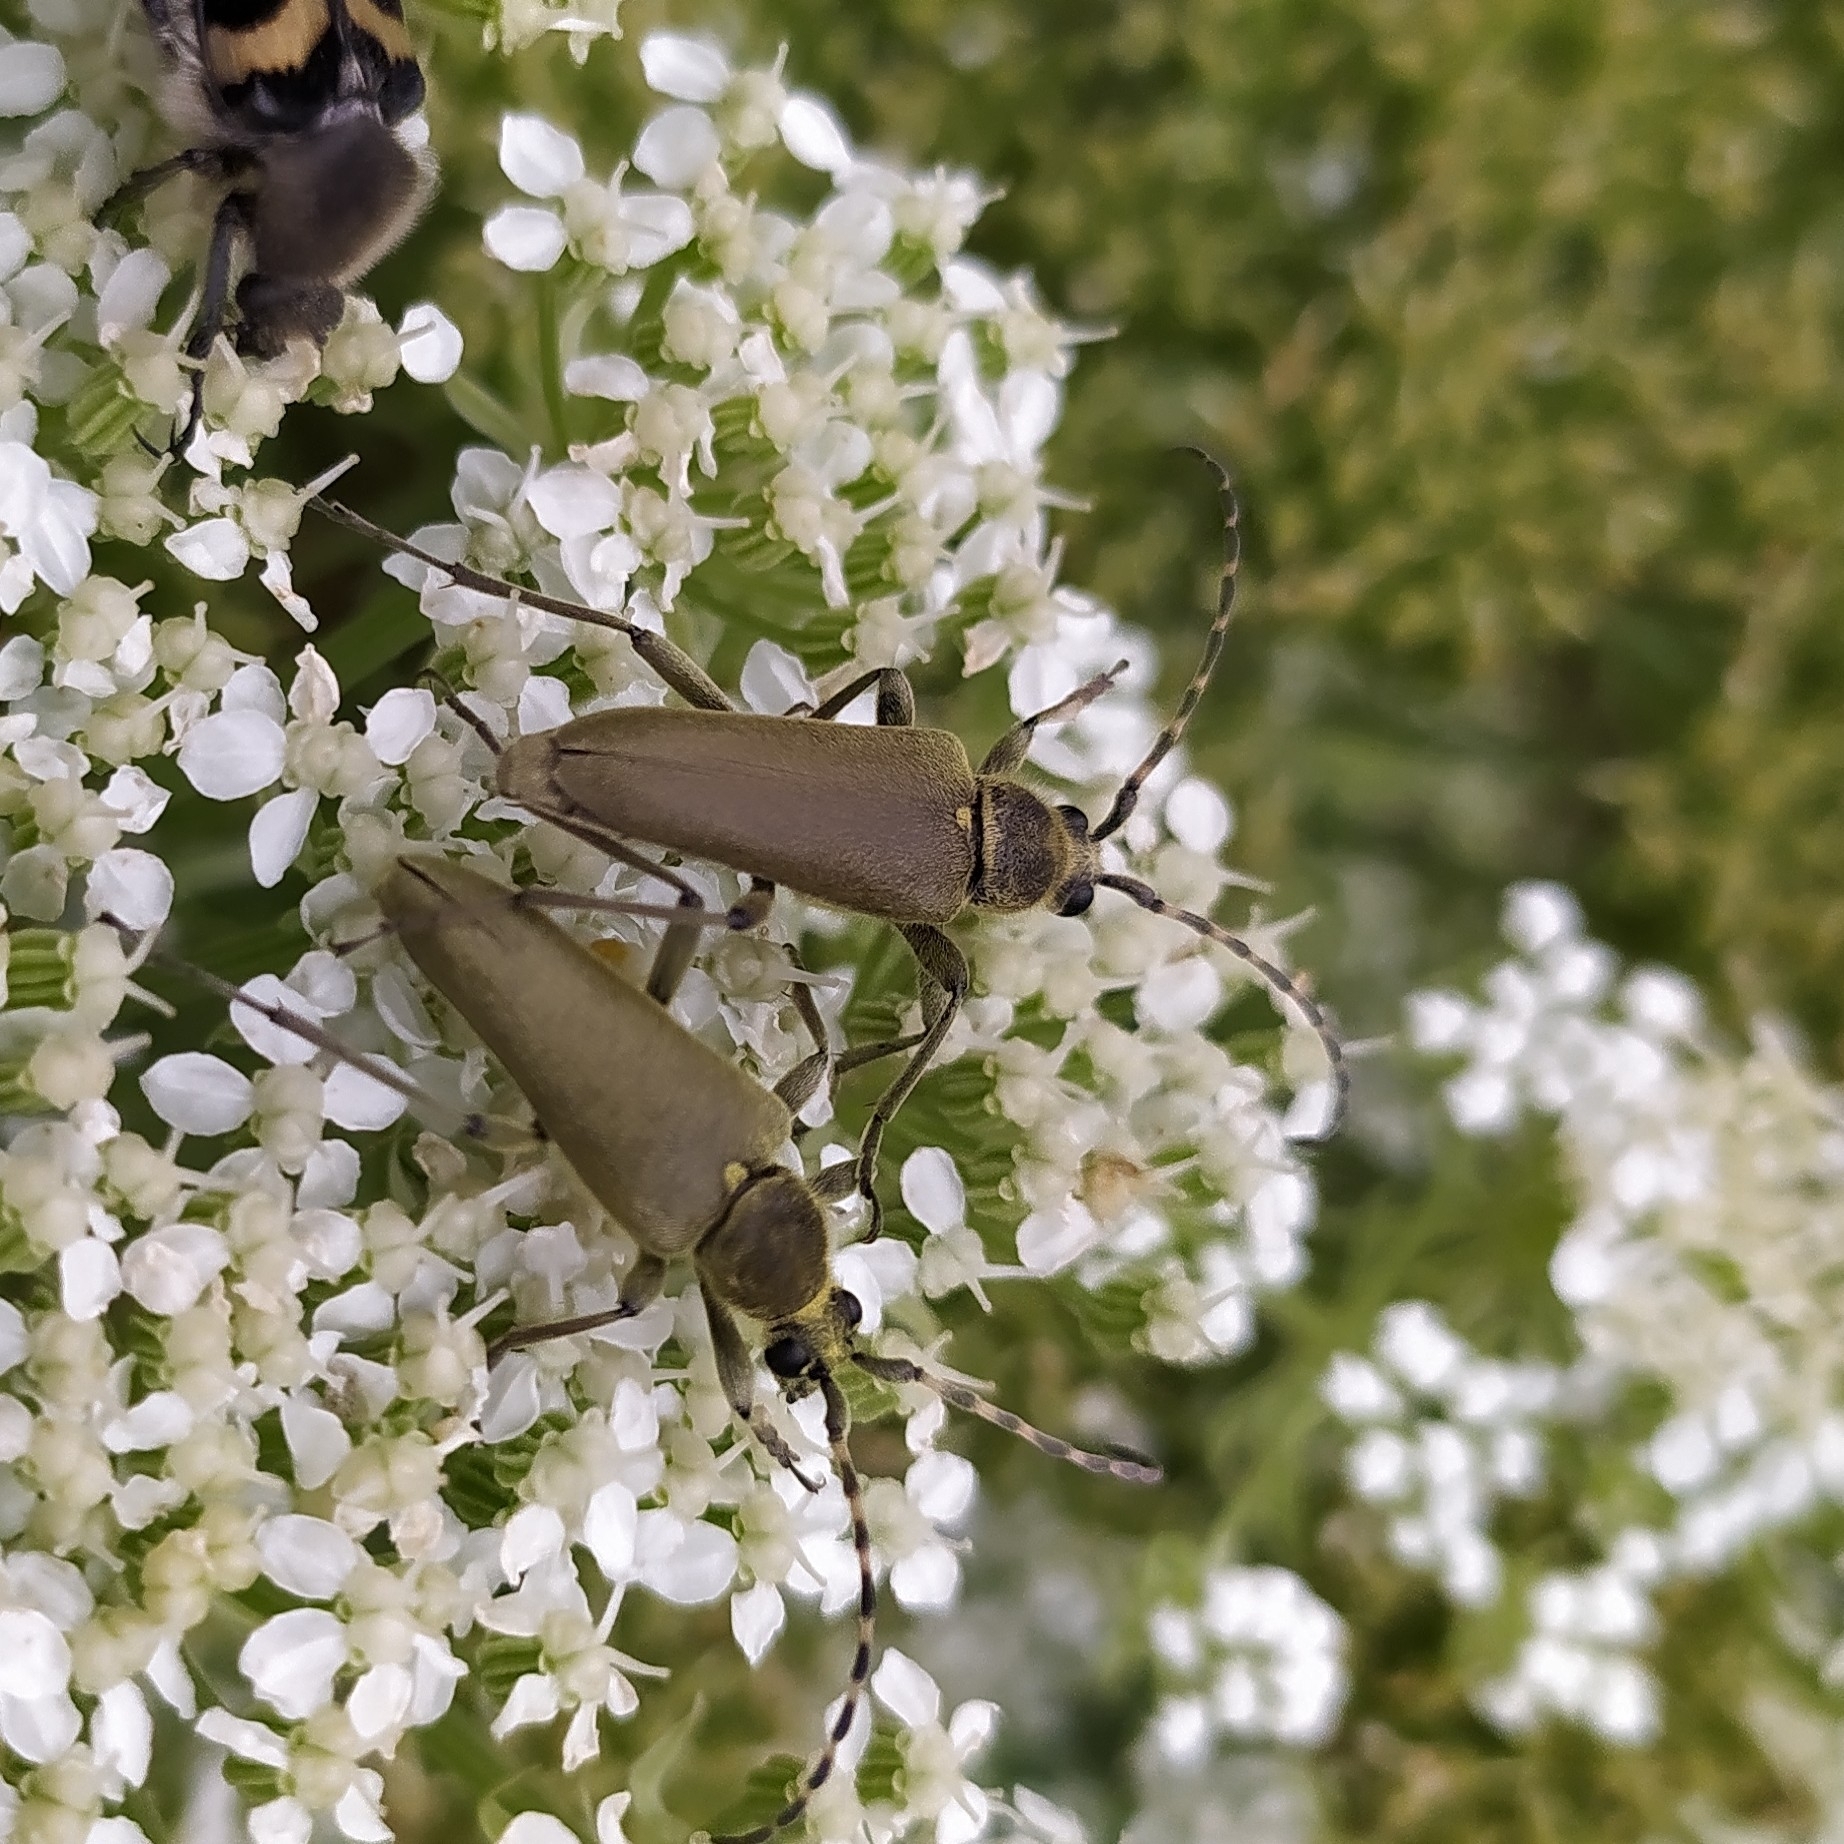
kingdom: Animalia
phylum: Arthropoda
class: Insecta
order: Coleoptera
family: Cerambycidae
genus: Lepturobosca
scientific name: Lepturobosca virens
